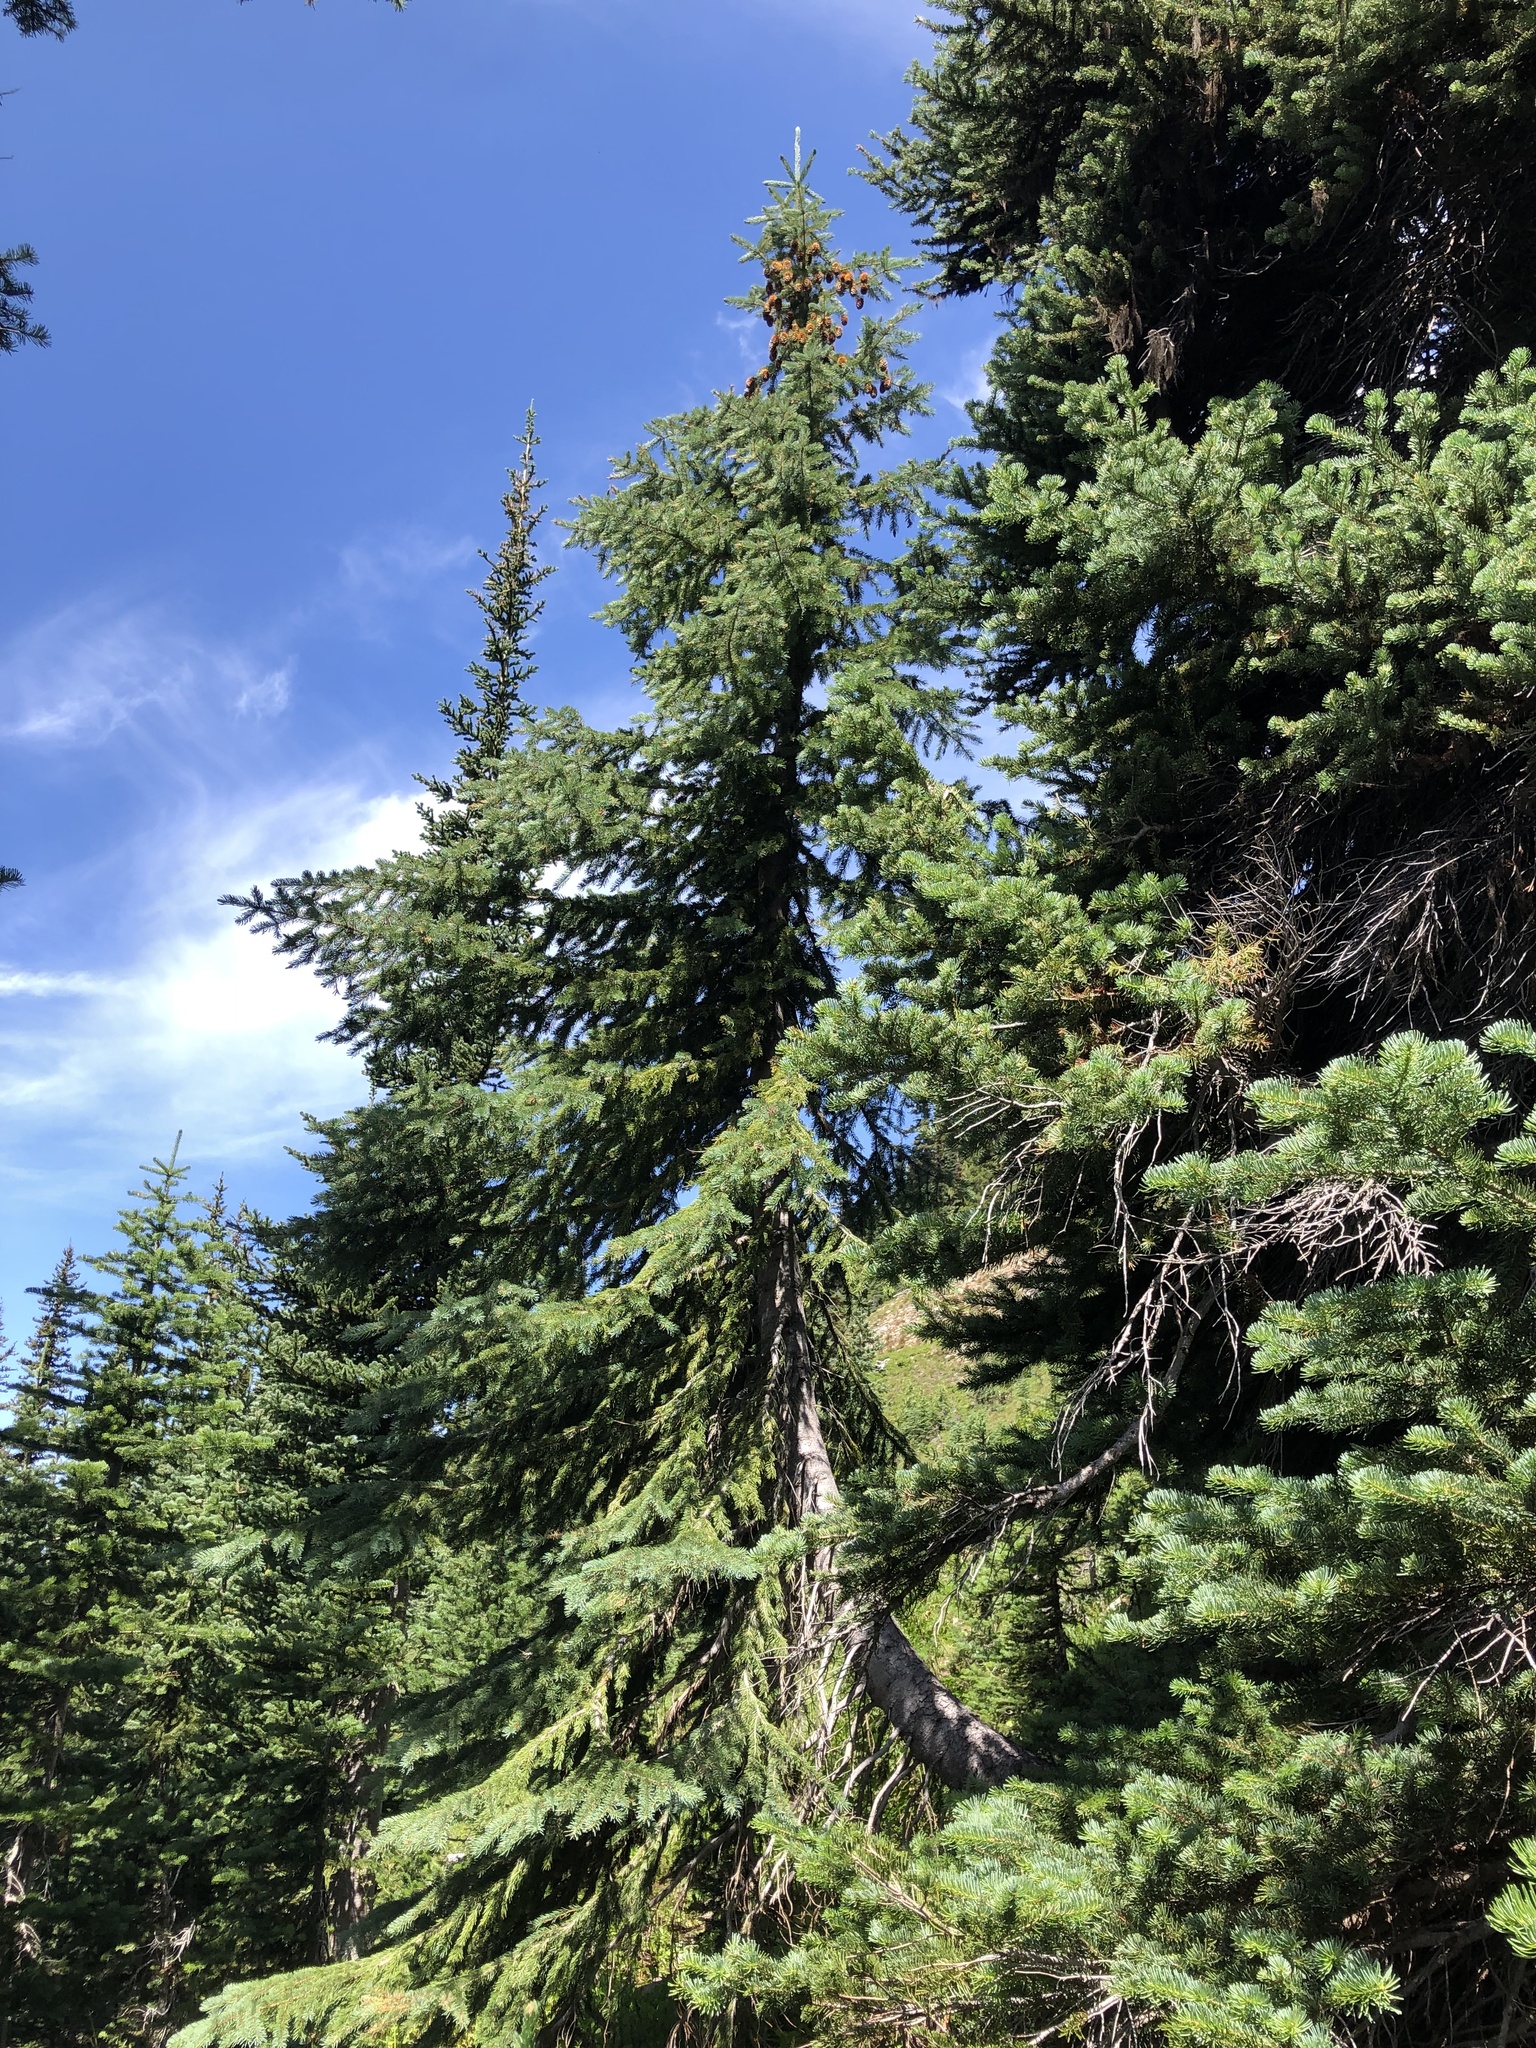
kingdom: Plantae
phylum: Tracheophyta
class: Pinopsida
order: Pinales
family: Pinaceae
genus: Picea
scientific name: Picea engelmannii
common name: Engelmann spruce
